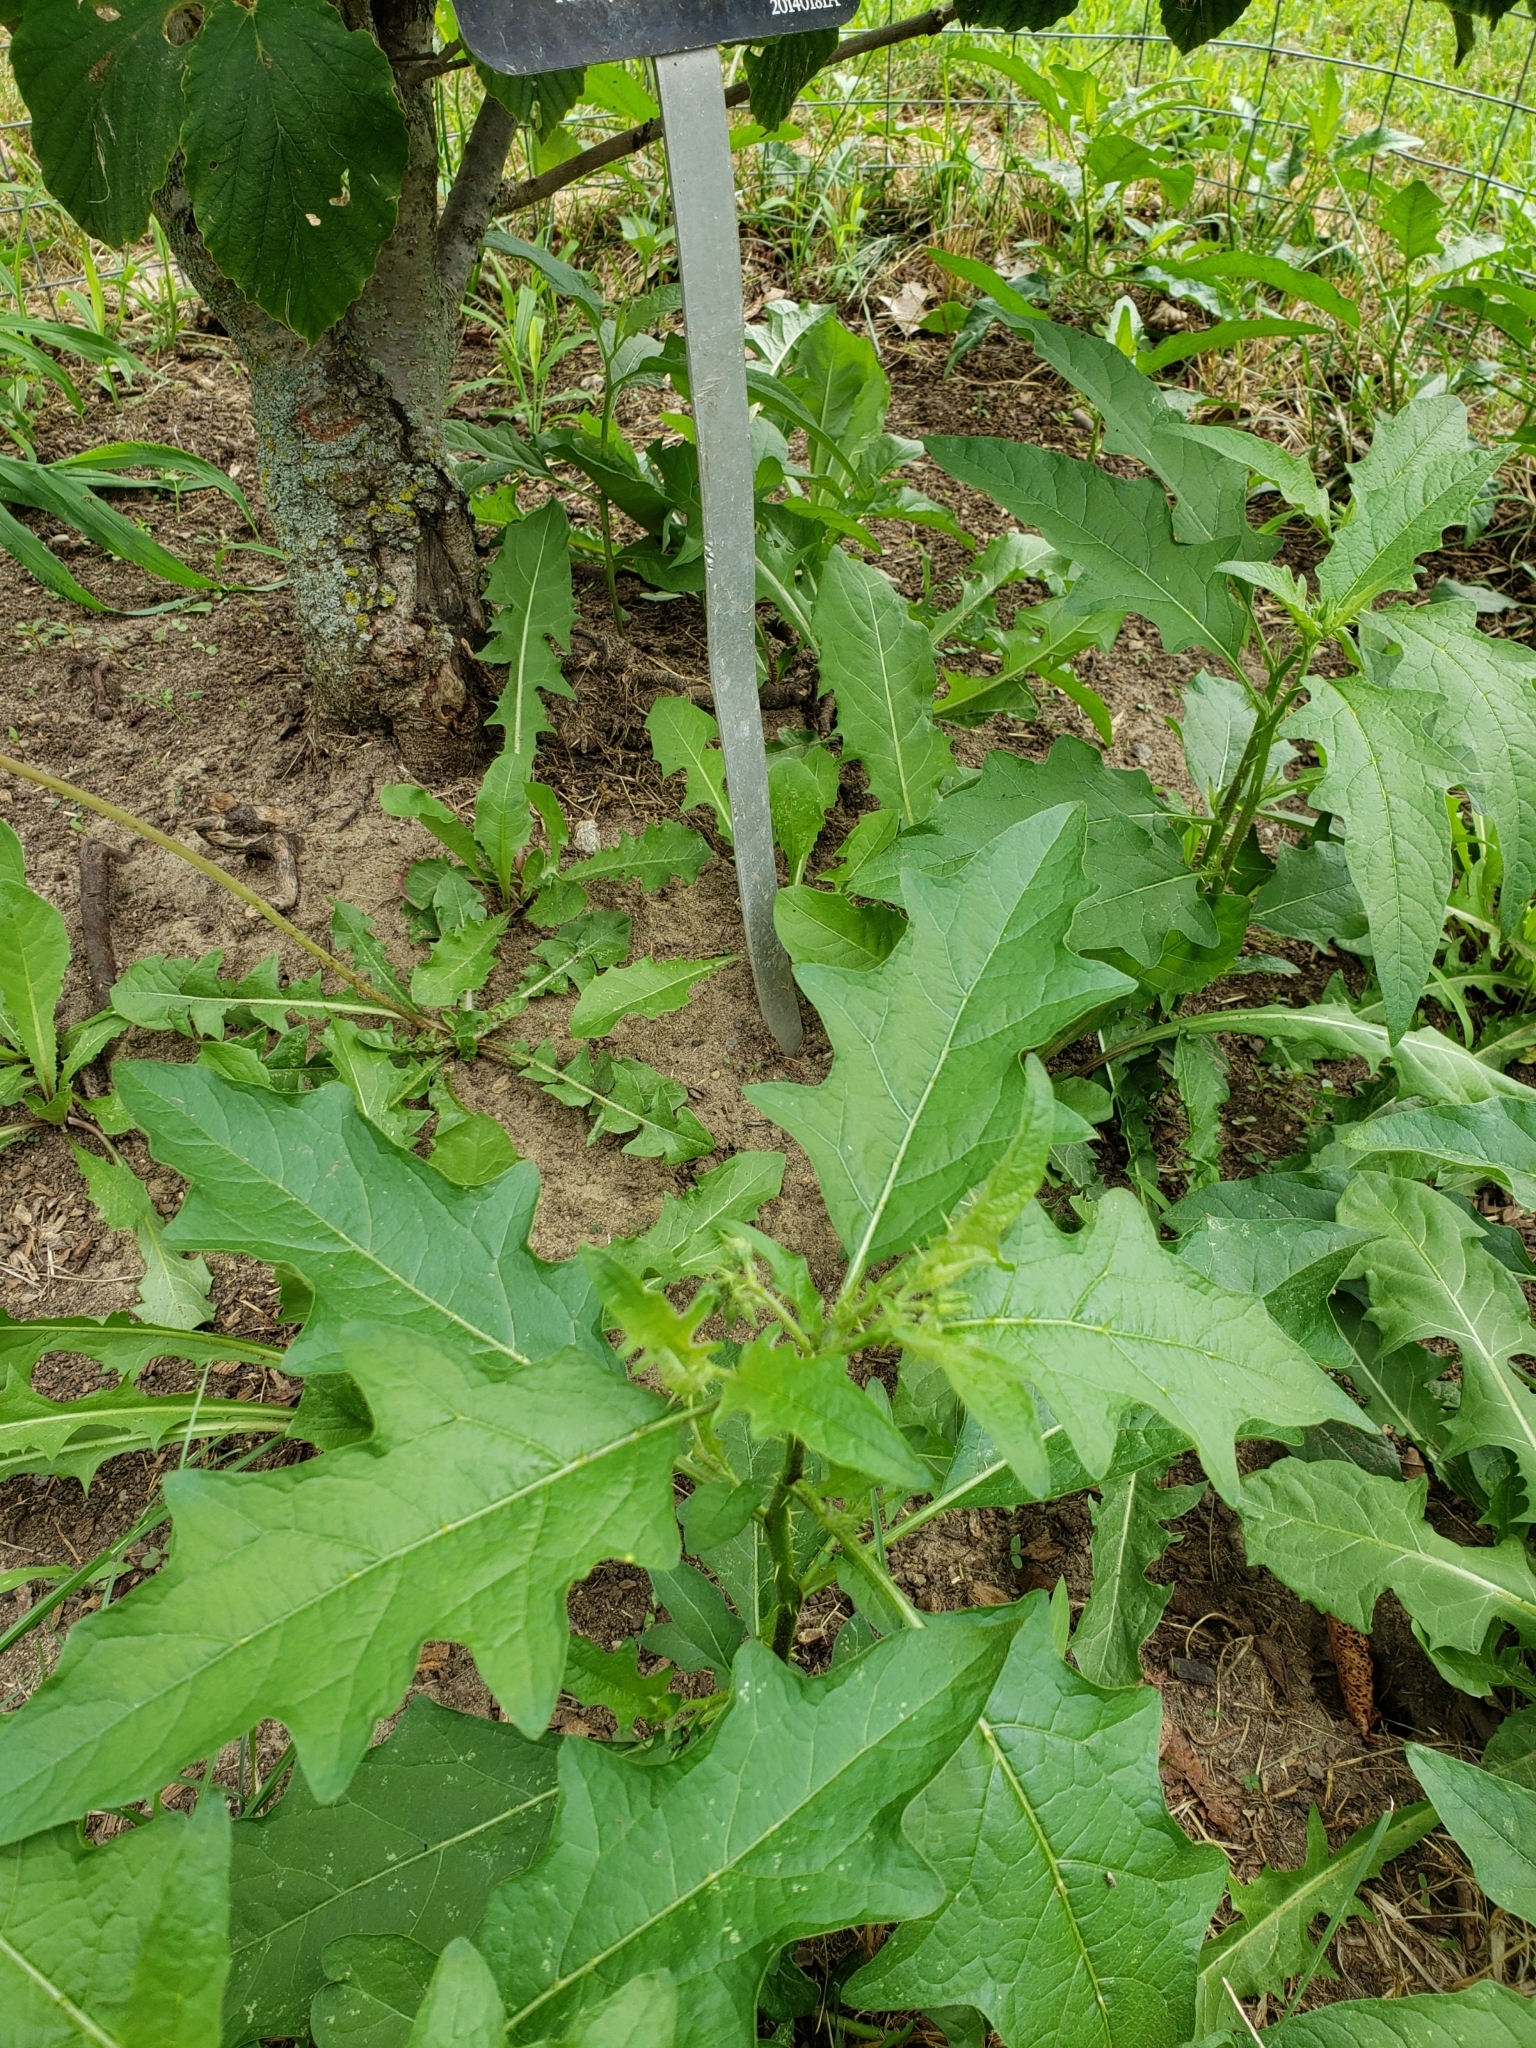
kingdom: Plantae
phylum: Tracheophyta
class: Magnoliopsida
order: Solanales
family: Solanaceae
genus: Solanum
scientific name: Solanum carolinense
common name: Horse-nettle
